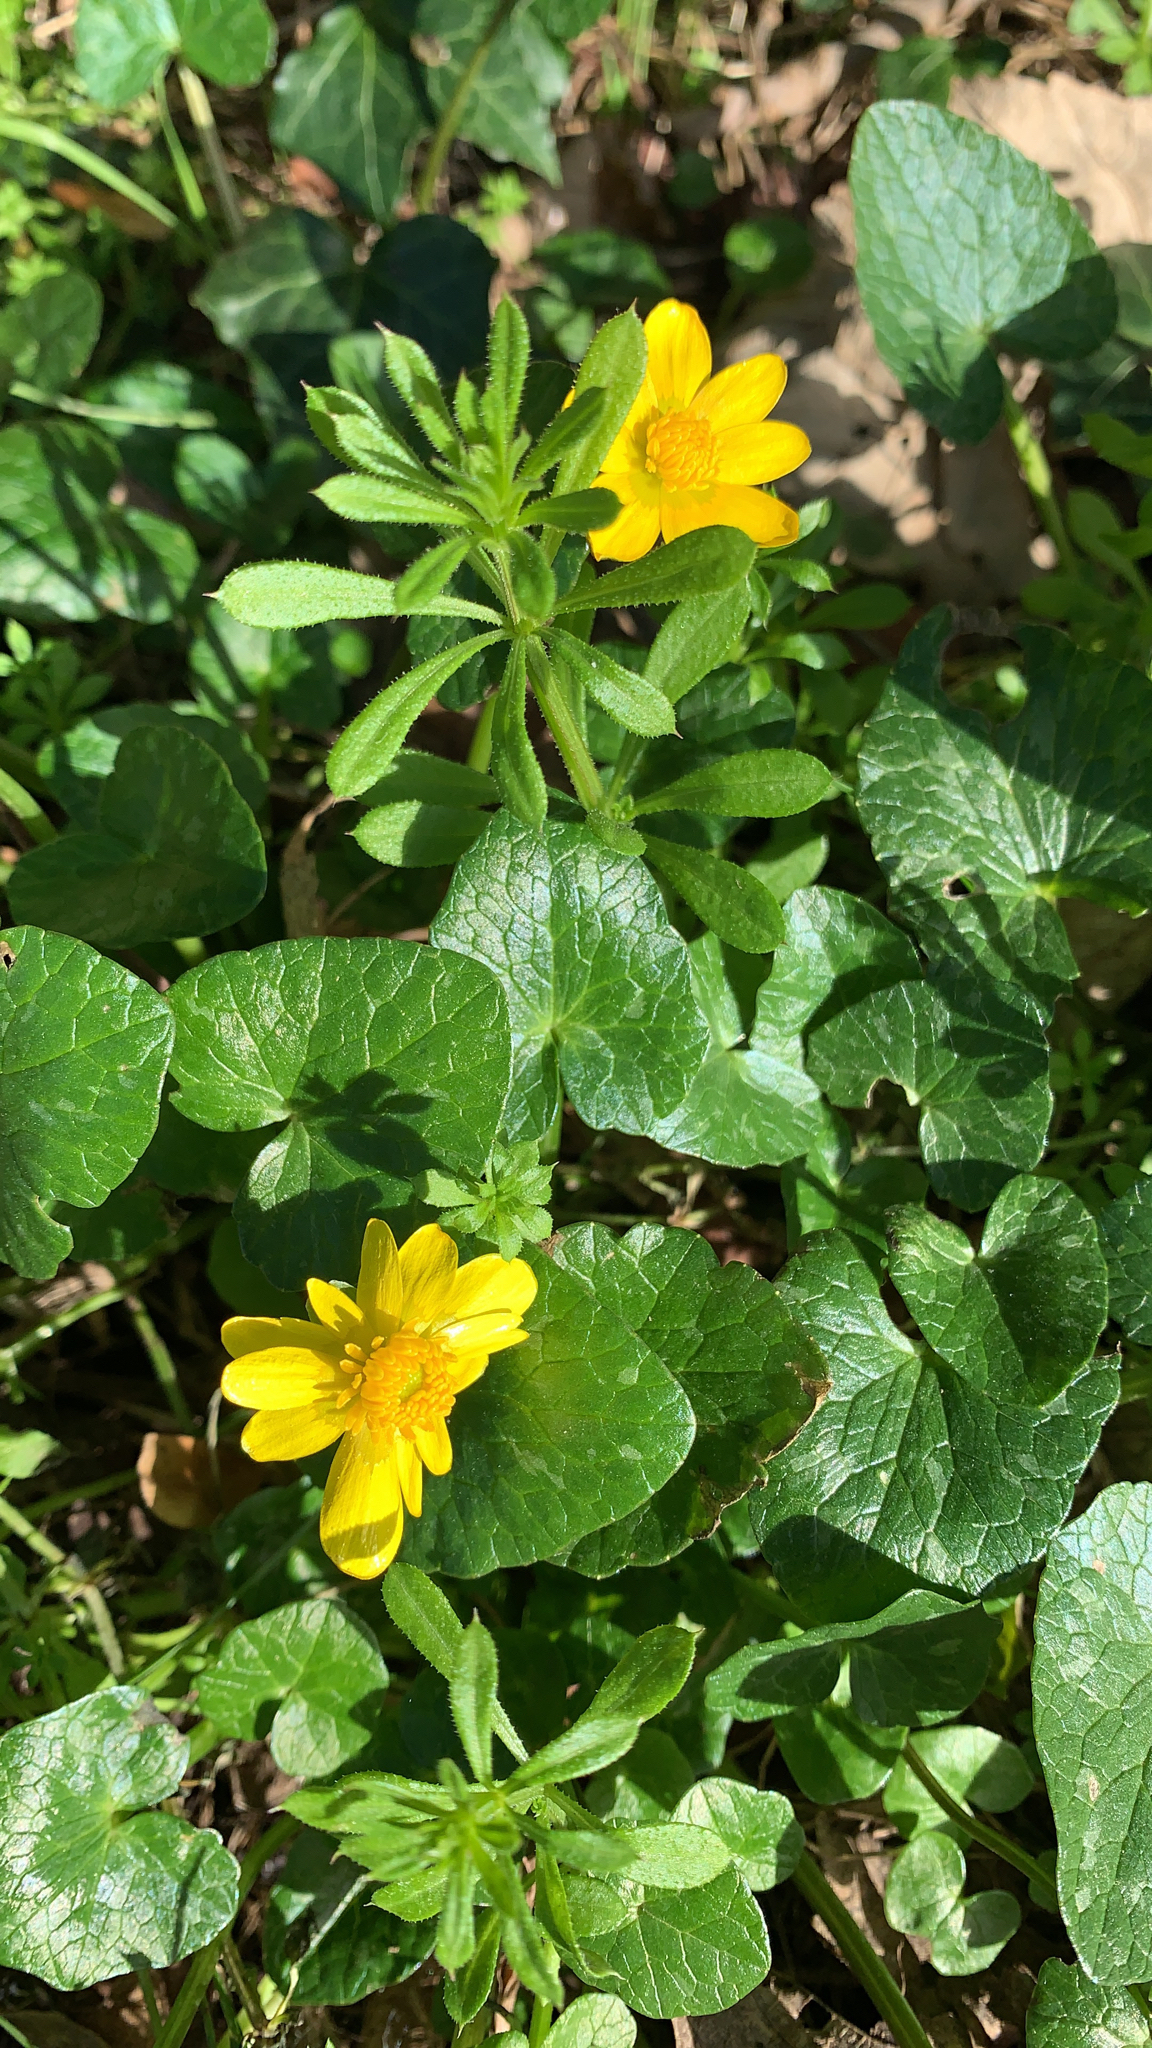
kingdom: Plantae
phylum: Tracheophyta
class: Magnoliopsida
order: Ranunculales
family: Ranunculaceae
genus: Ficaria
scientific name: Ficaria verna
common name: Lesser celandine
